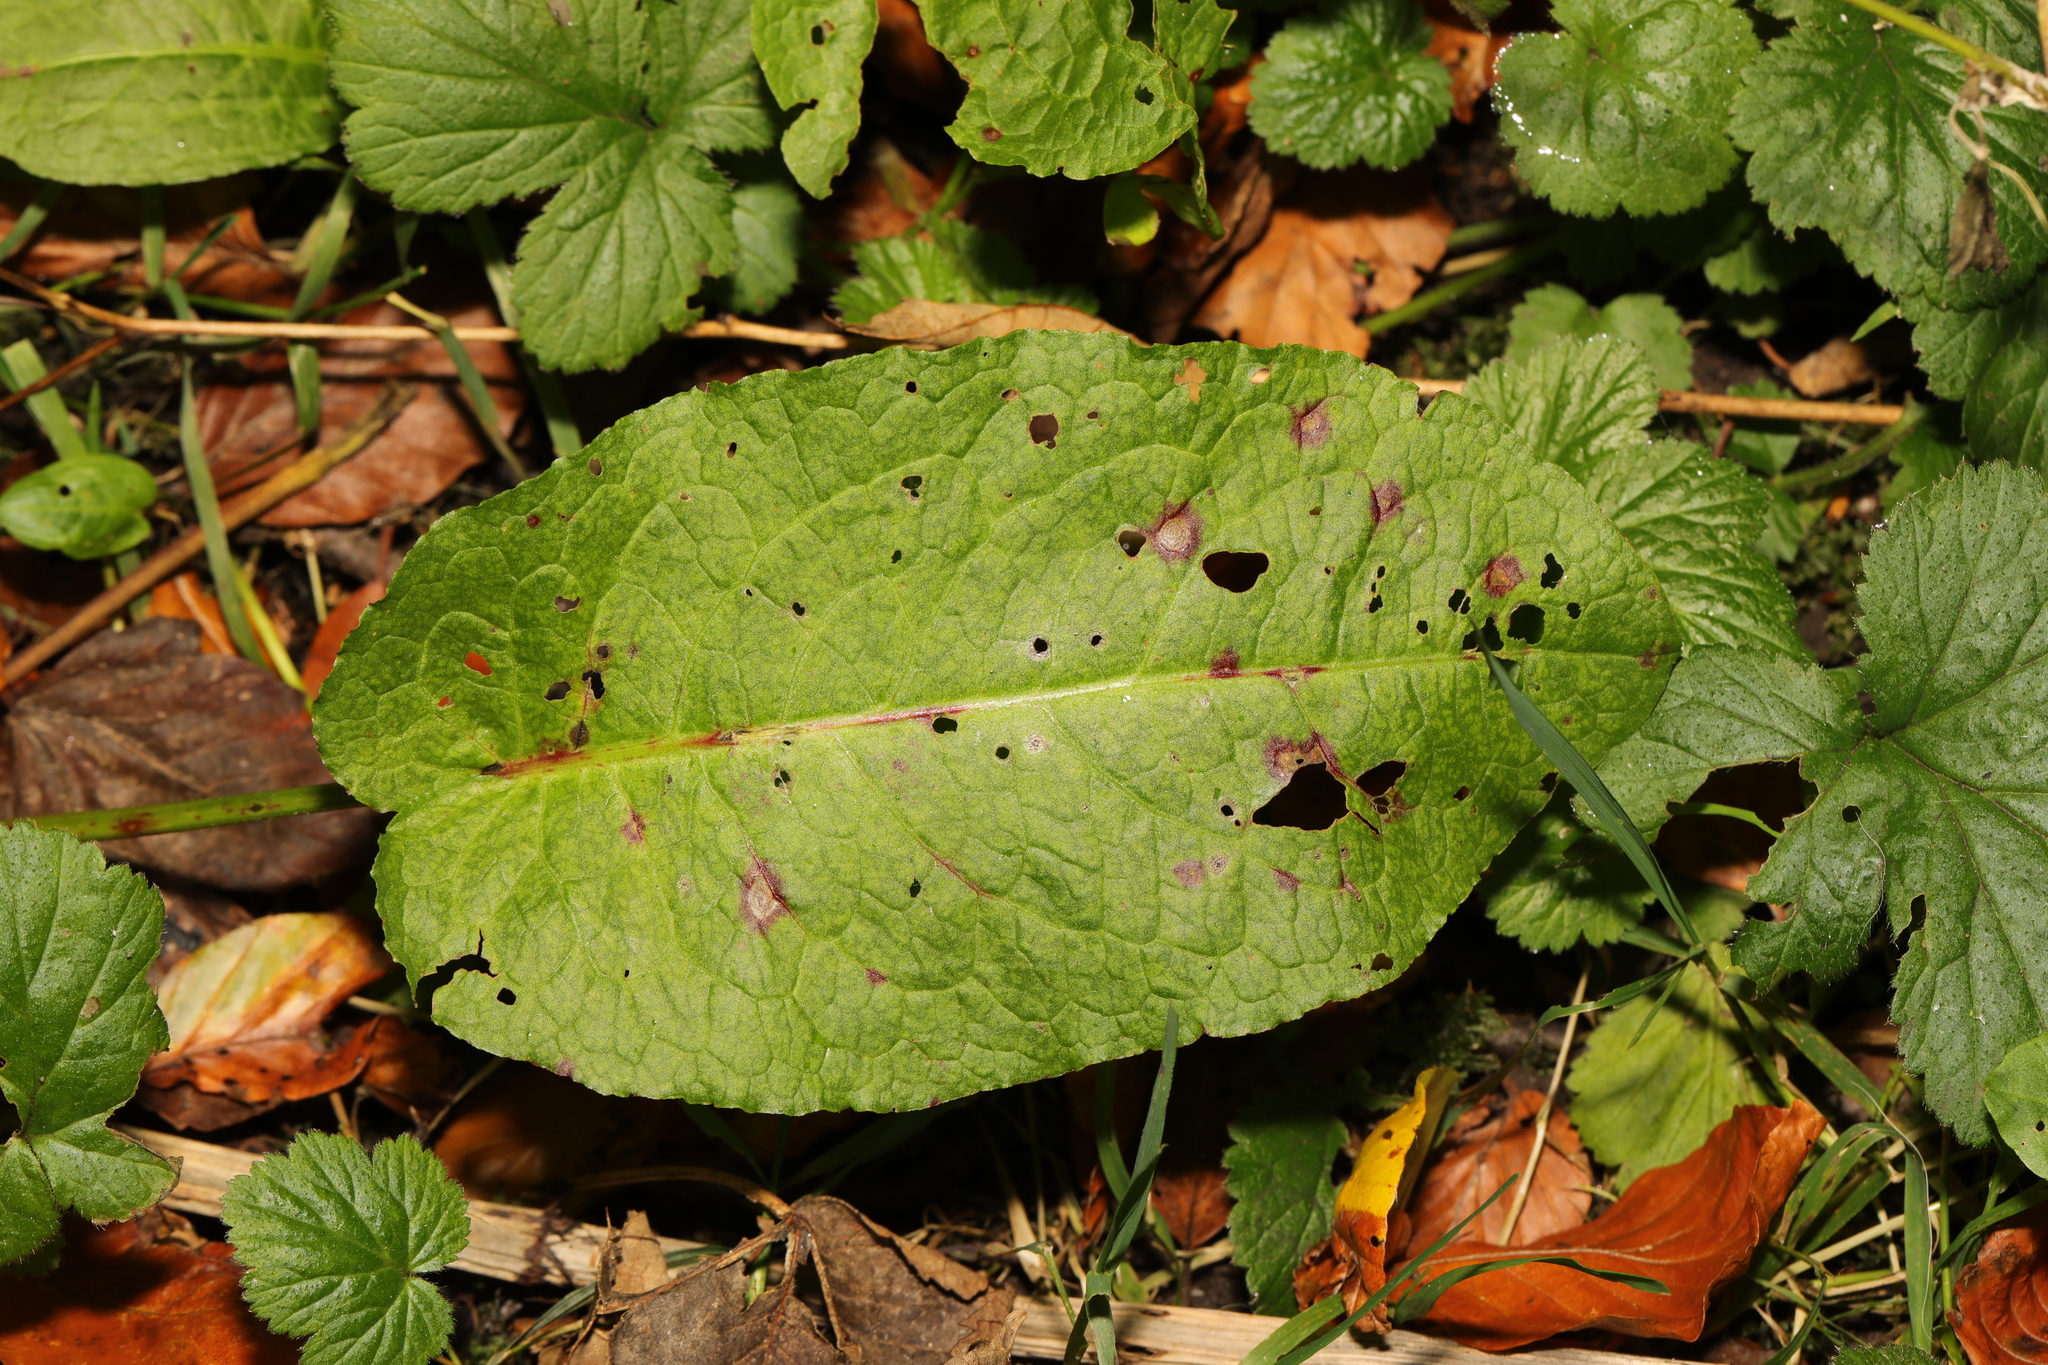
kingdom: Plantae
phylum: Tracheophyta
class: Magnoliopsida
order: Caryophyllales
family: Polygonaceae
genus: Rumex
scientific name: Rumex obtusifolius
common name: Bitter dock
